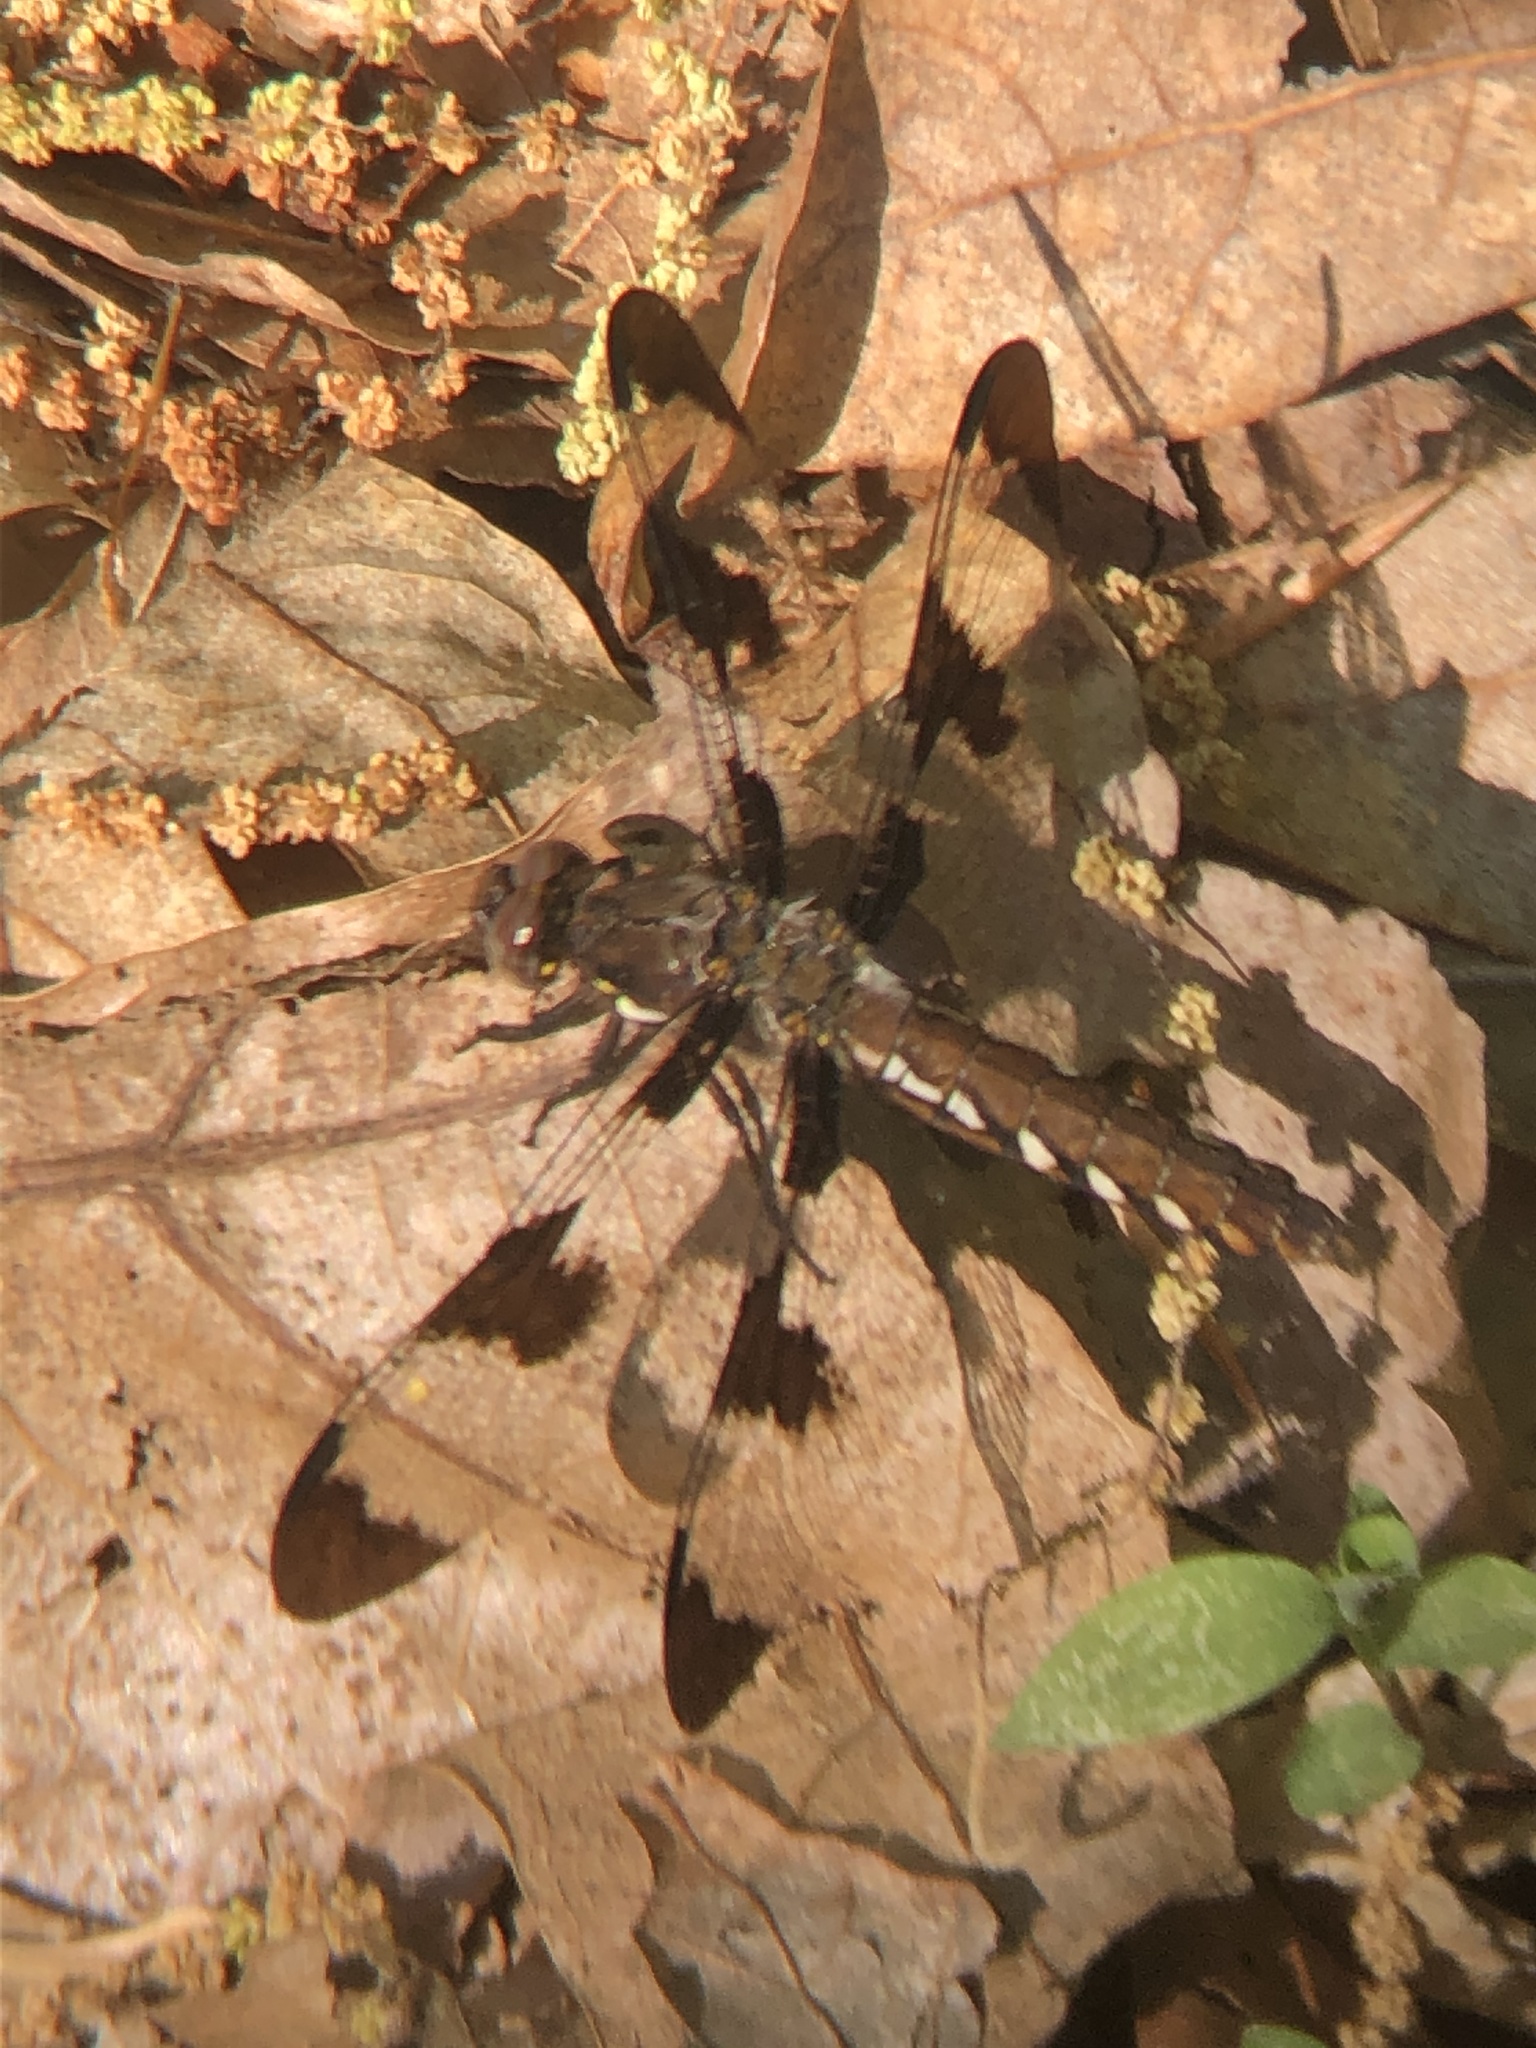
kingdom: Animalia
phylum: Arthropoda
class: Insecta
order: Odonata
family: Libellulidae
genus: Plathemis
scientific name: Plathemis lydia
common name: Common whitetail
